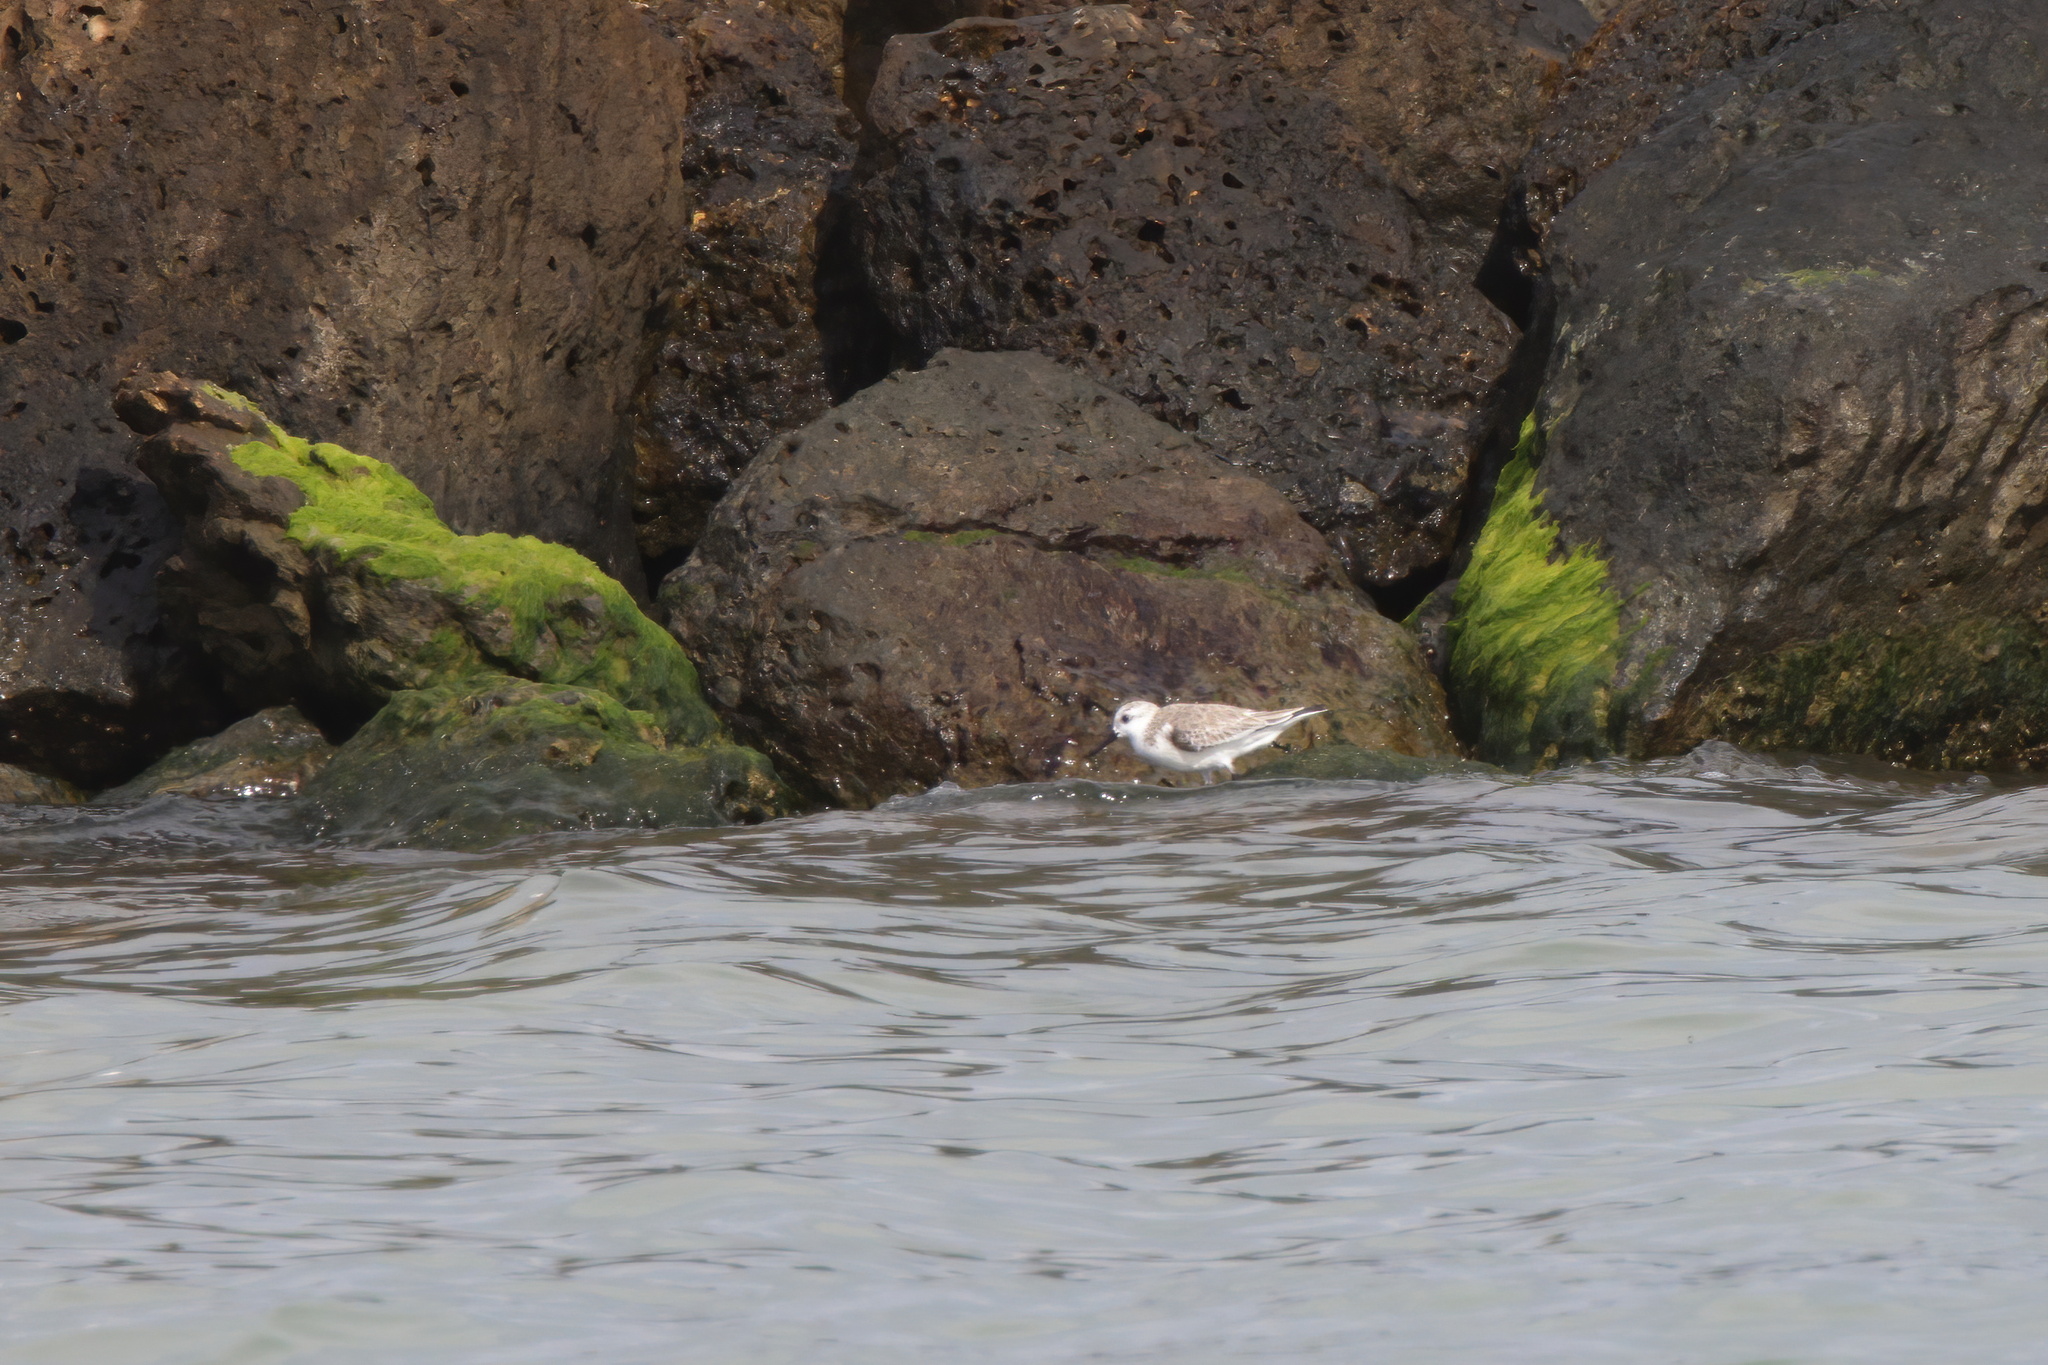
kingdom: Animalia
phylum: Chordata
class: Aves
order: Charadriiformes
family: Scolopacidae
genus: Calidris
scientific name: Calidris alba
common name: Sanderling
